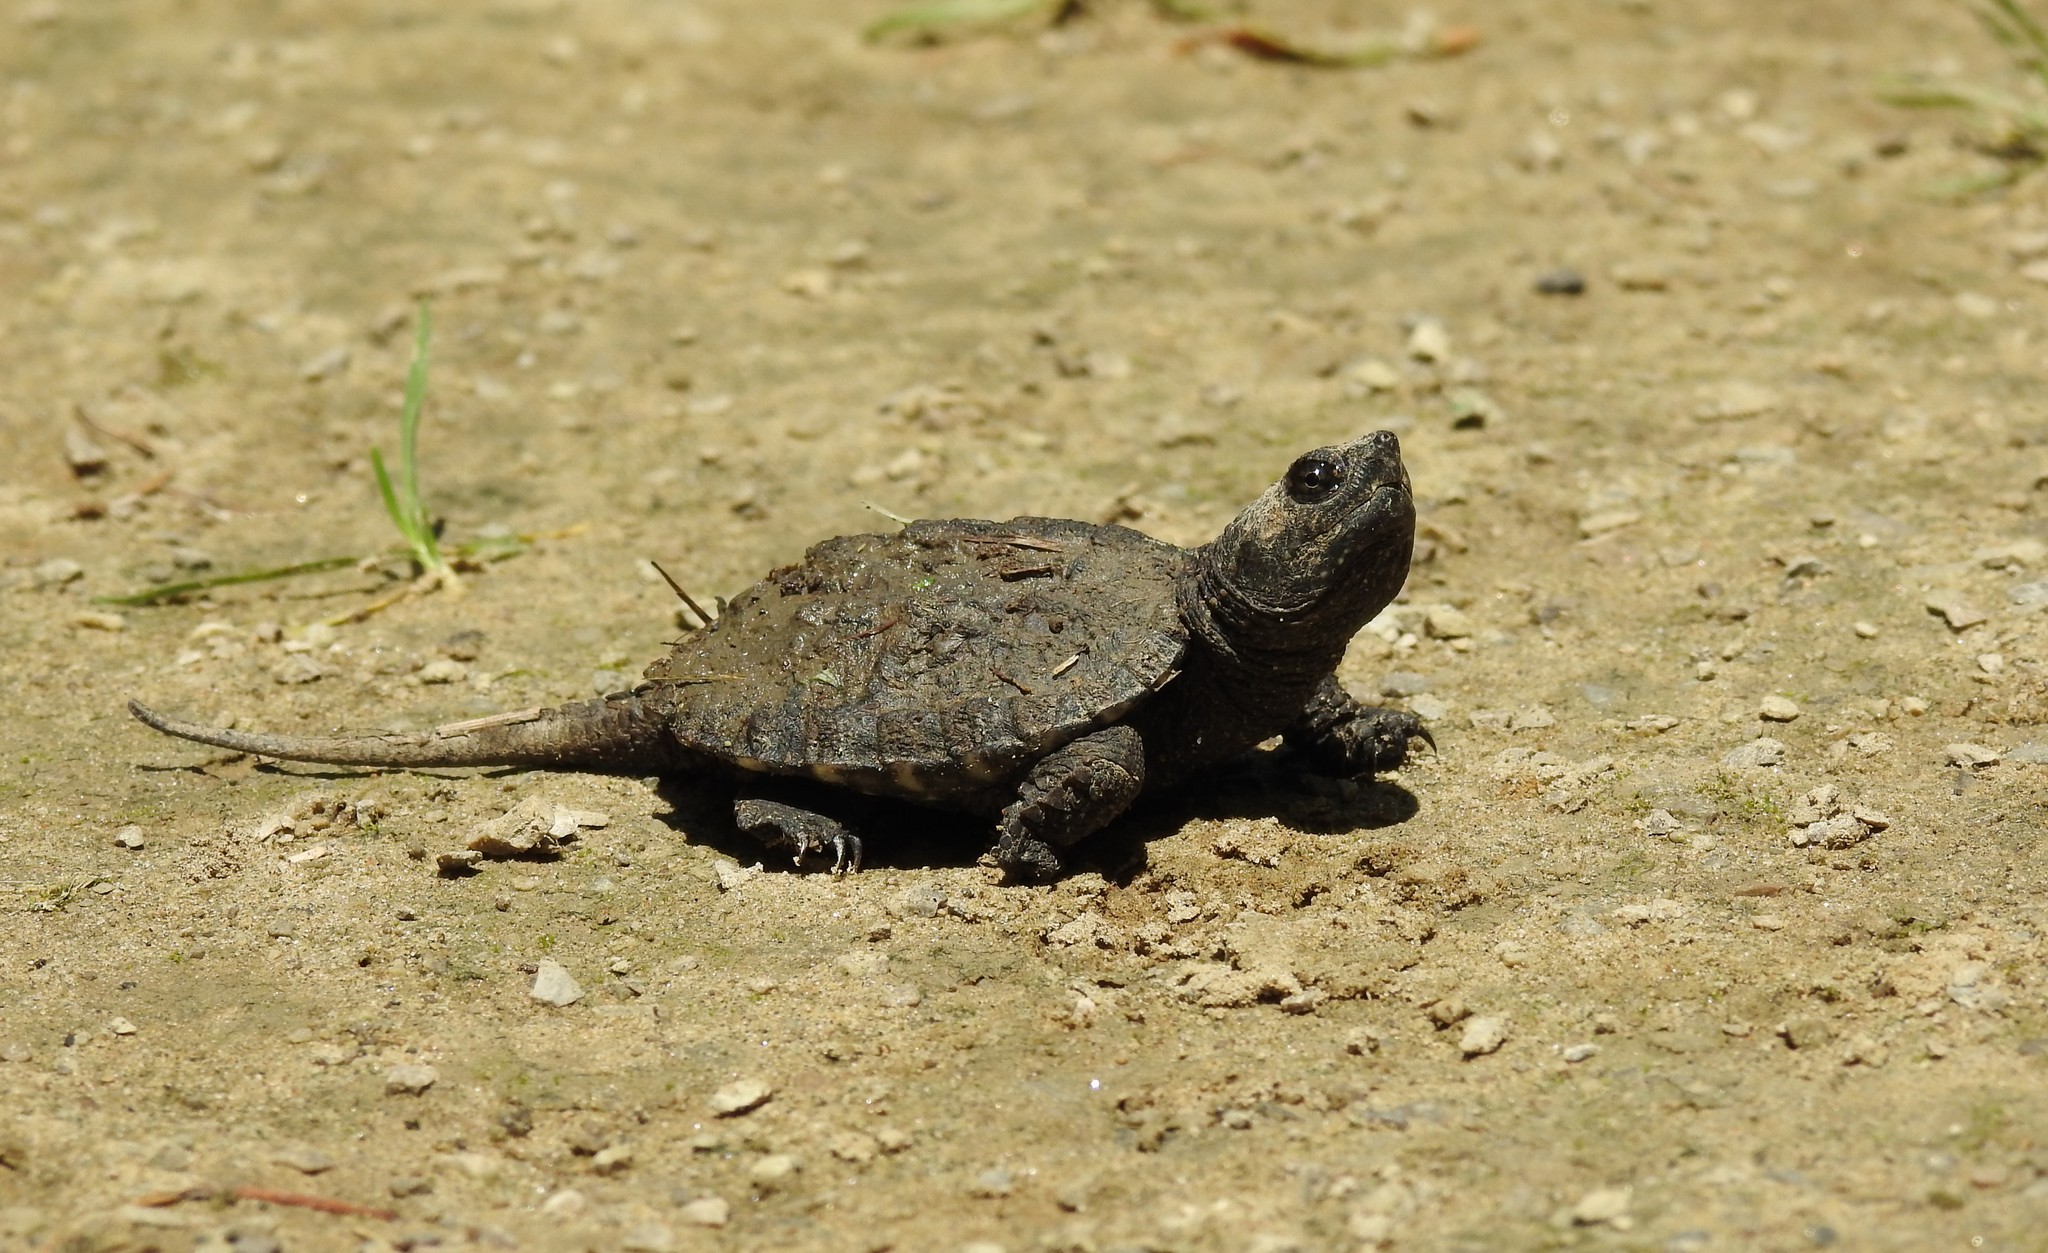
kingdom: Animalia
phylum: Chordata
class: Testudines
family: Chelydridae
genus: Chelydra
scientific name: Chelydra serpentina
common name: Common snapping turtle
